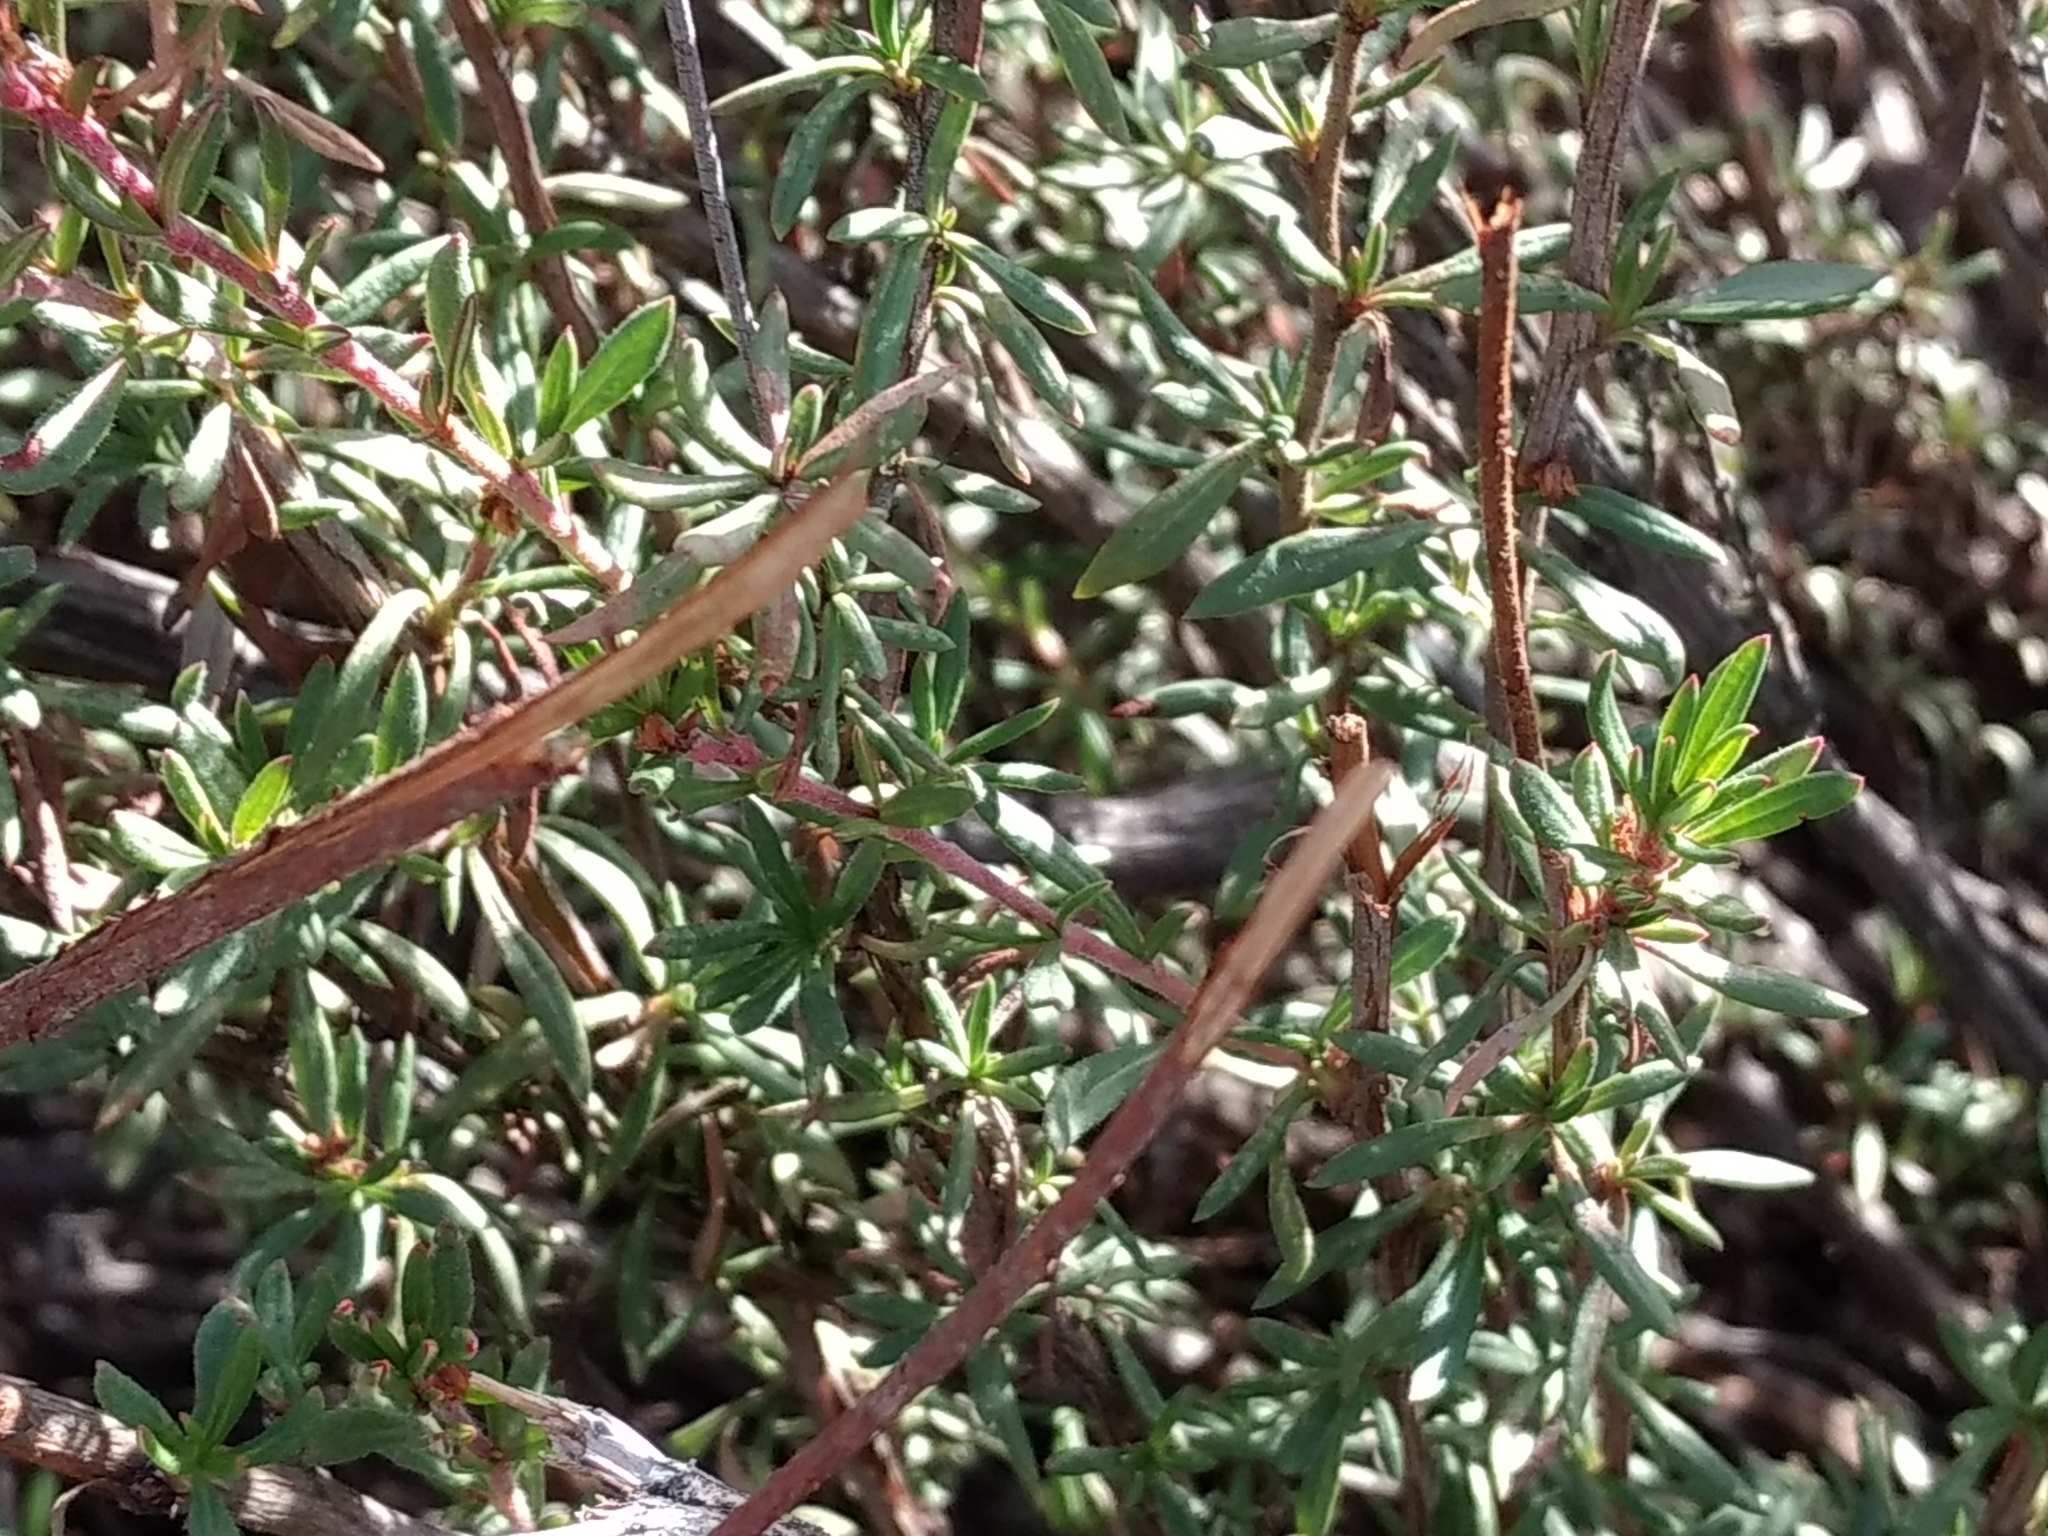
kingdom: Plantae
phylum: Tracheophyta
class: Magnoliopsida
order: Caryophyllales
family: Polygonaceae
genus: Eriogonum
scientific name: Eriogonum fasciculatum
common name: California wild buckwheat
